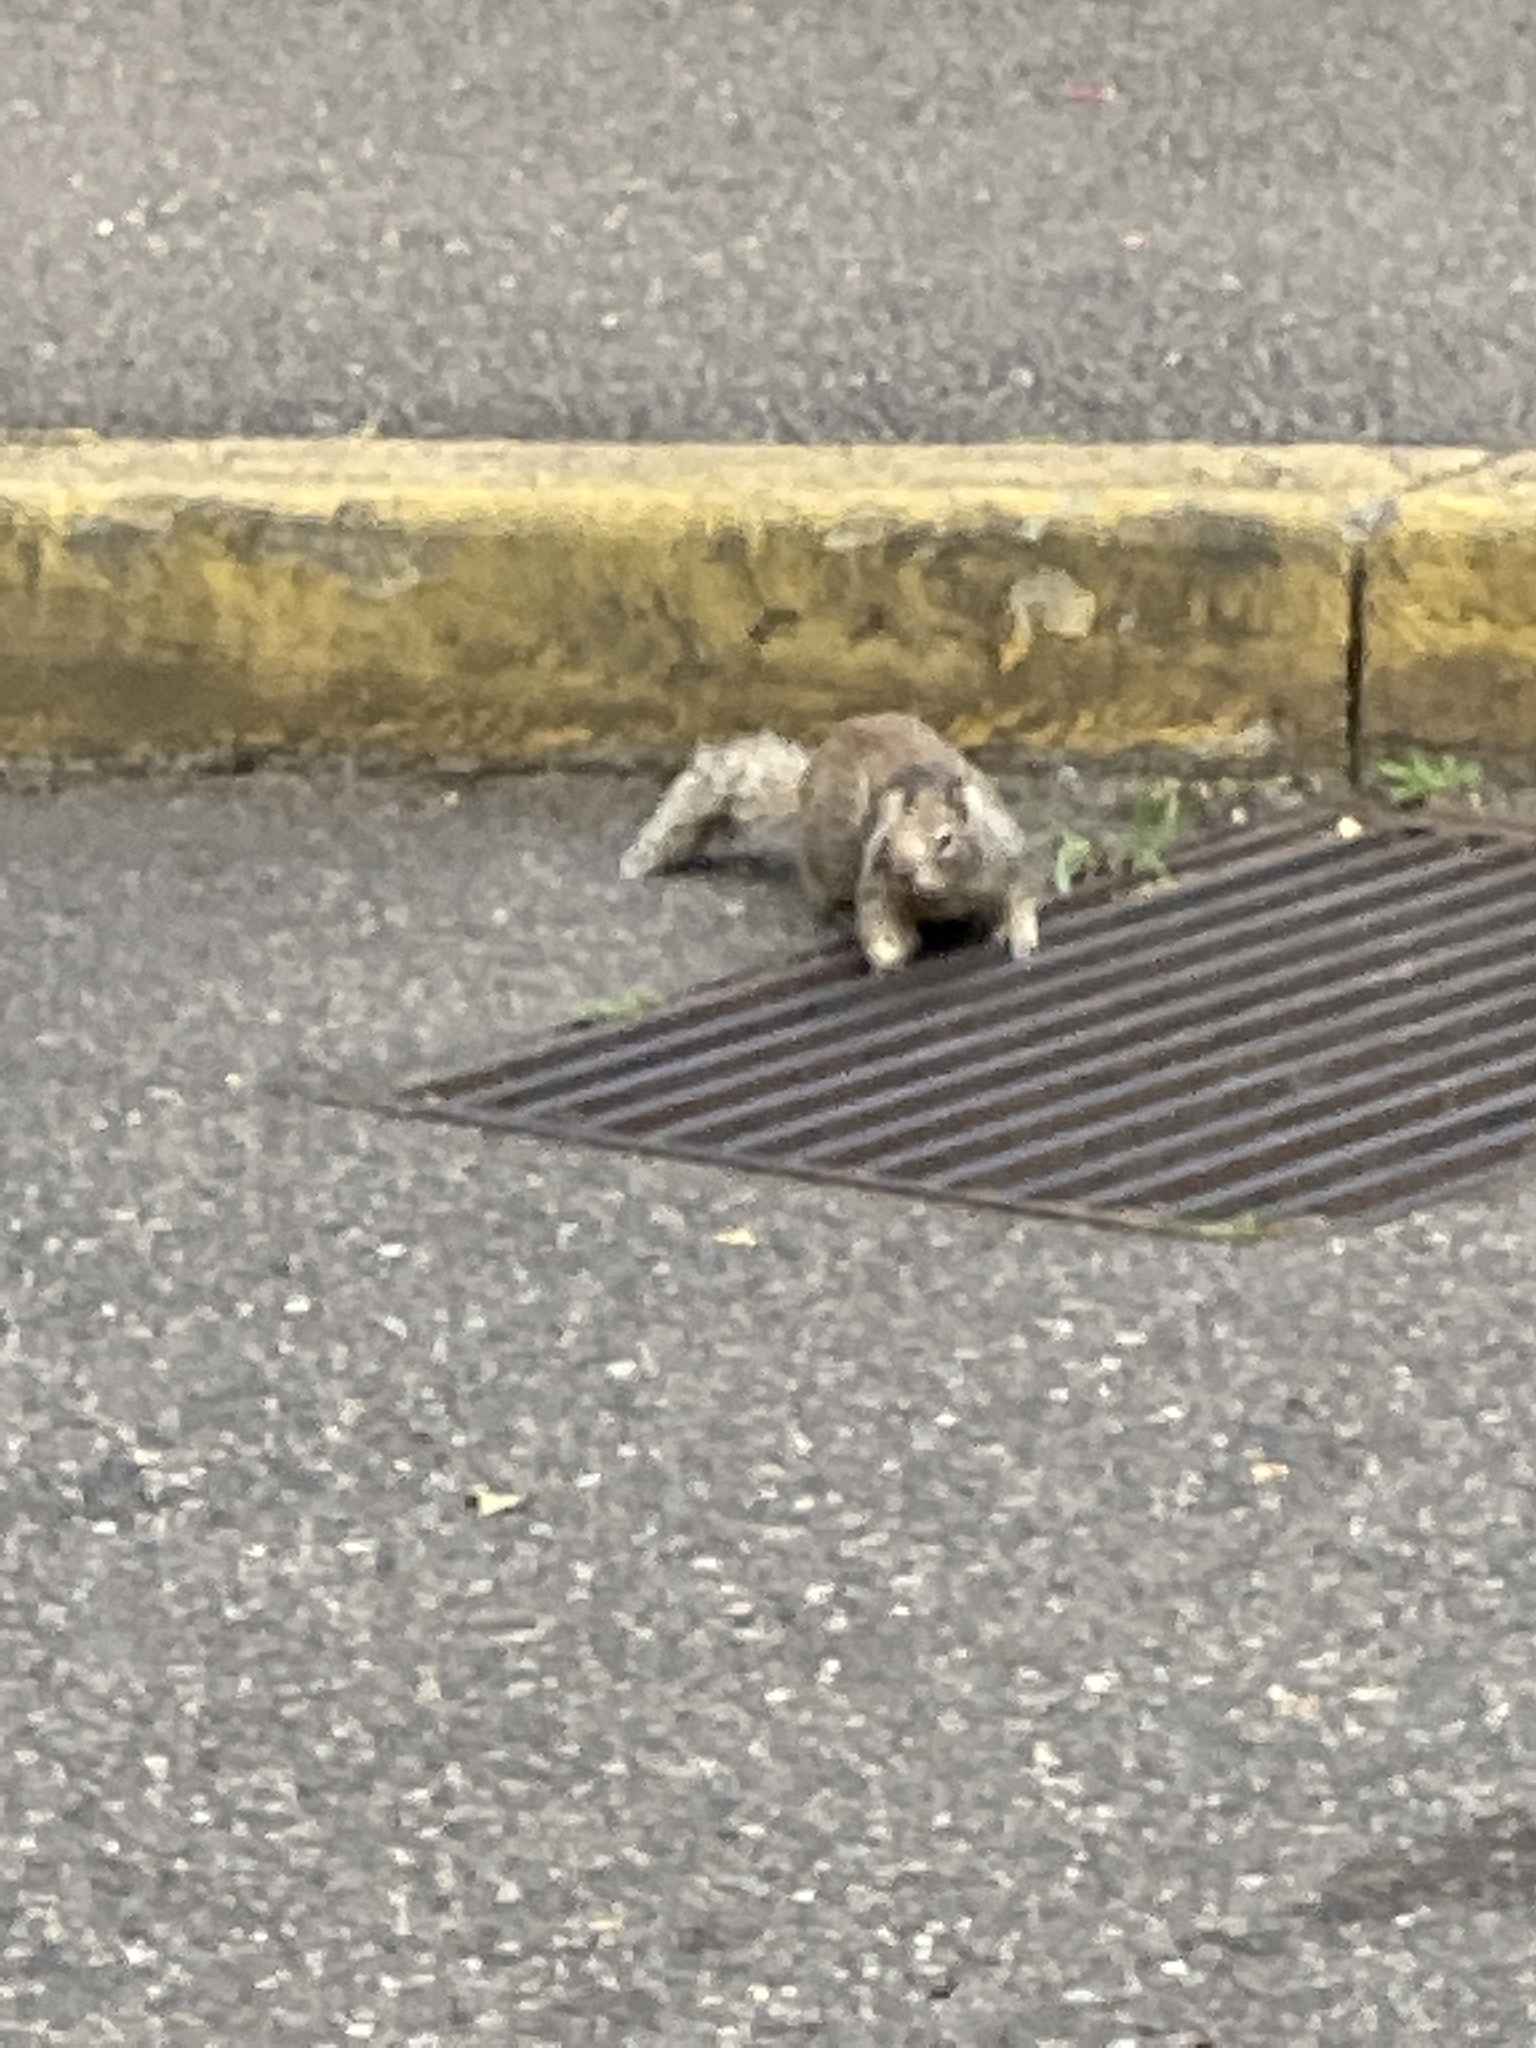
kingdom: Animalia
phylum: Chordata
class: Mammalia
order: Rodentia
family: Sciuridae
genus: Otospermophilus
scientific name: Otospermophilus beecheyi
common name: California ground squirrel
